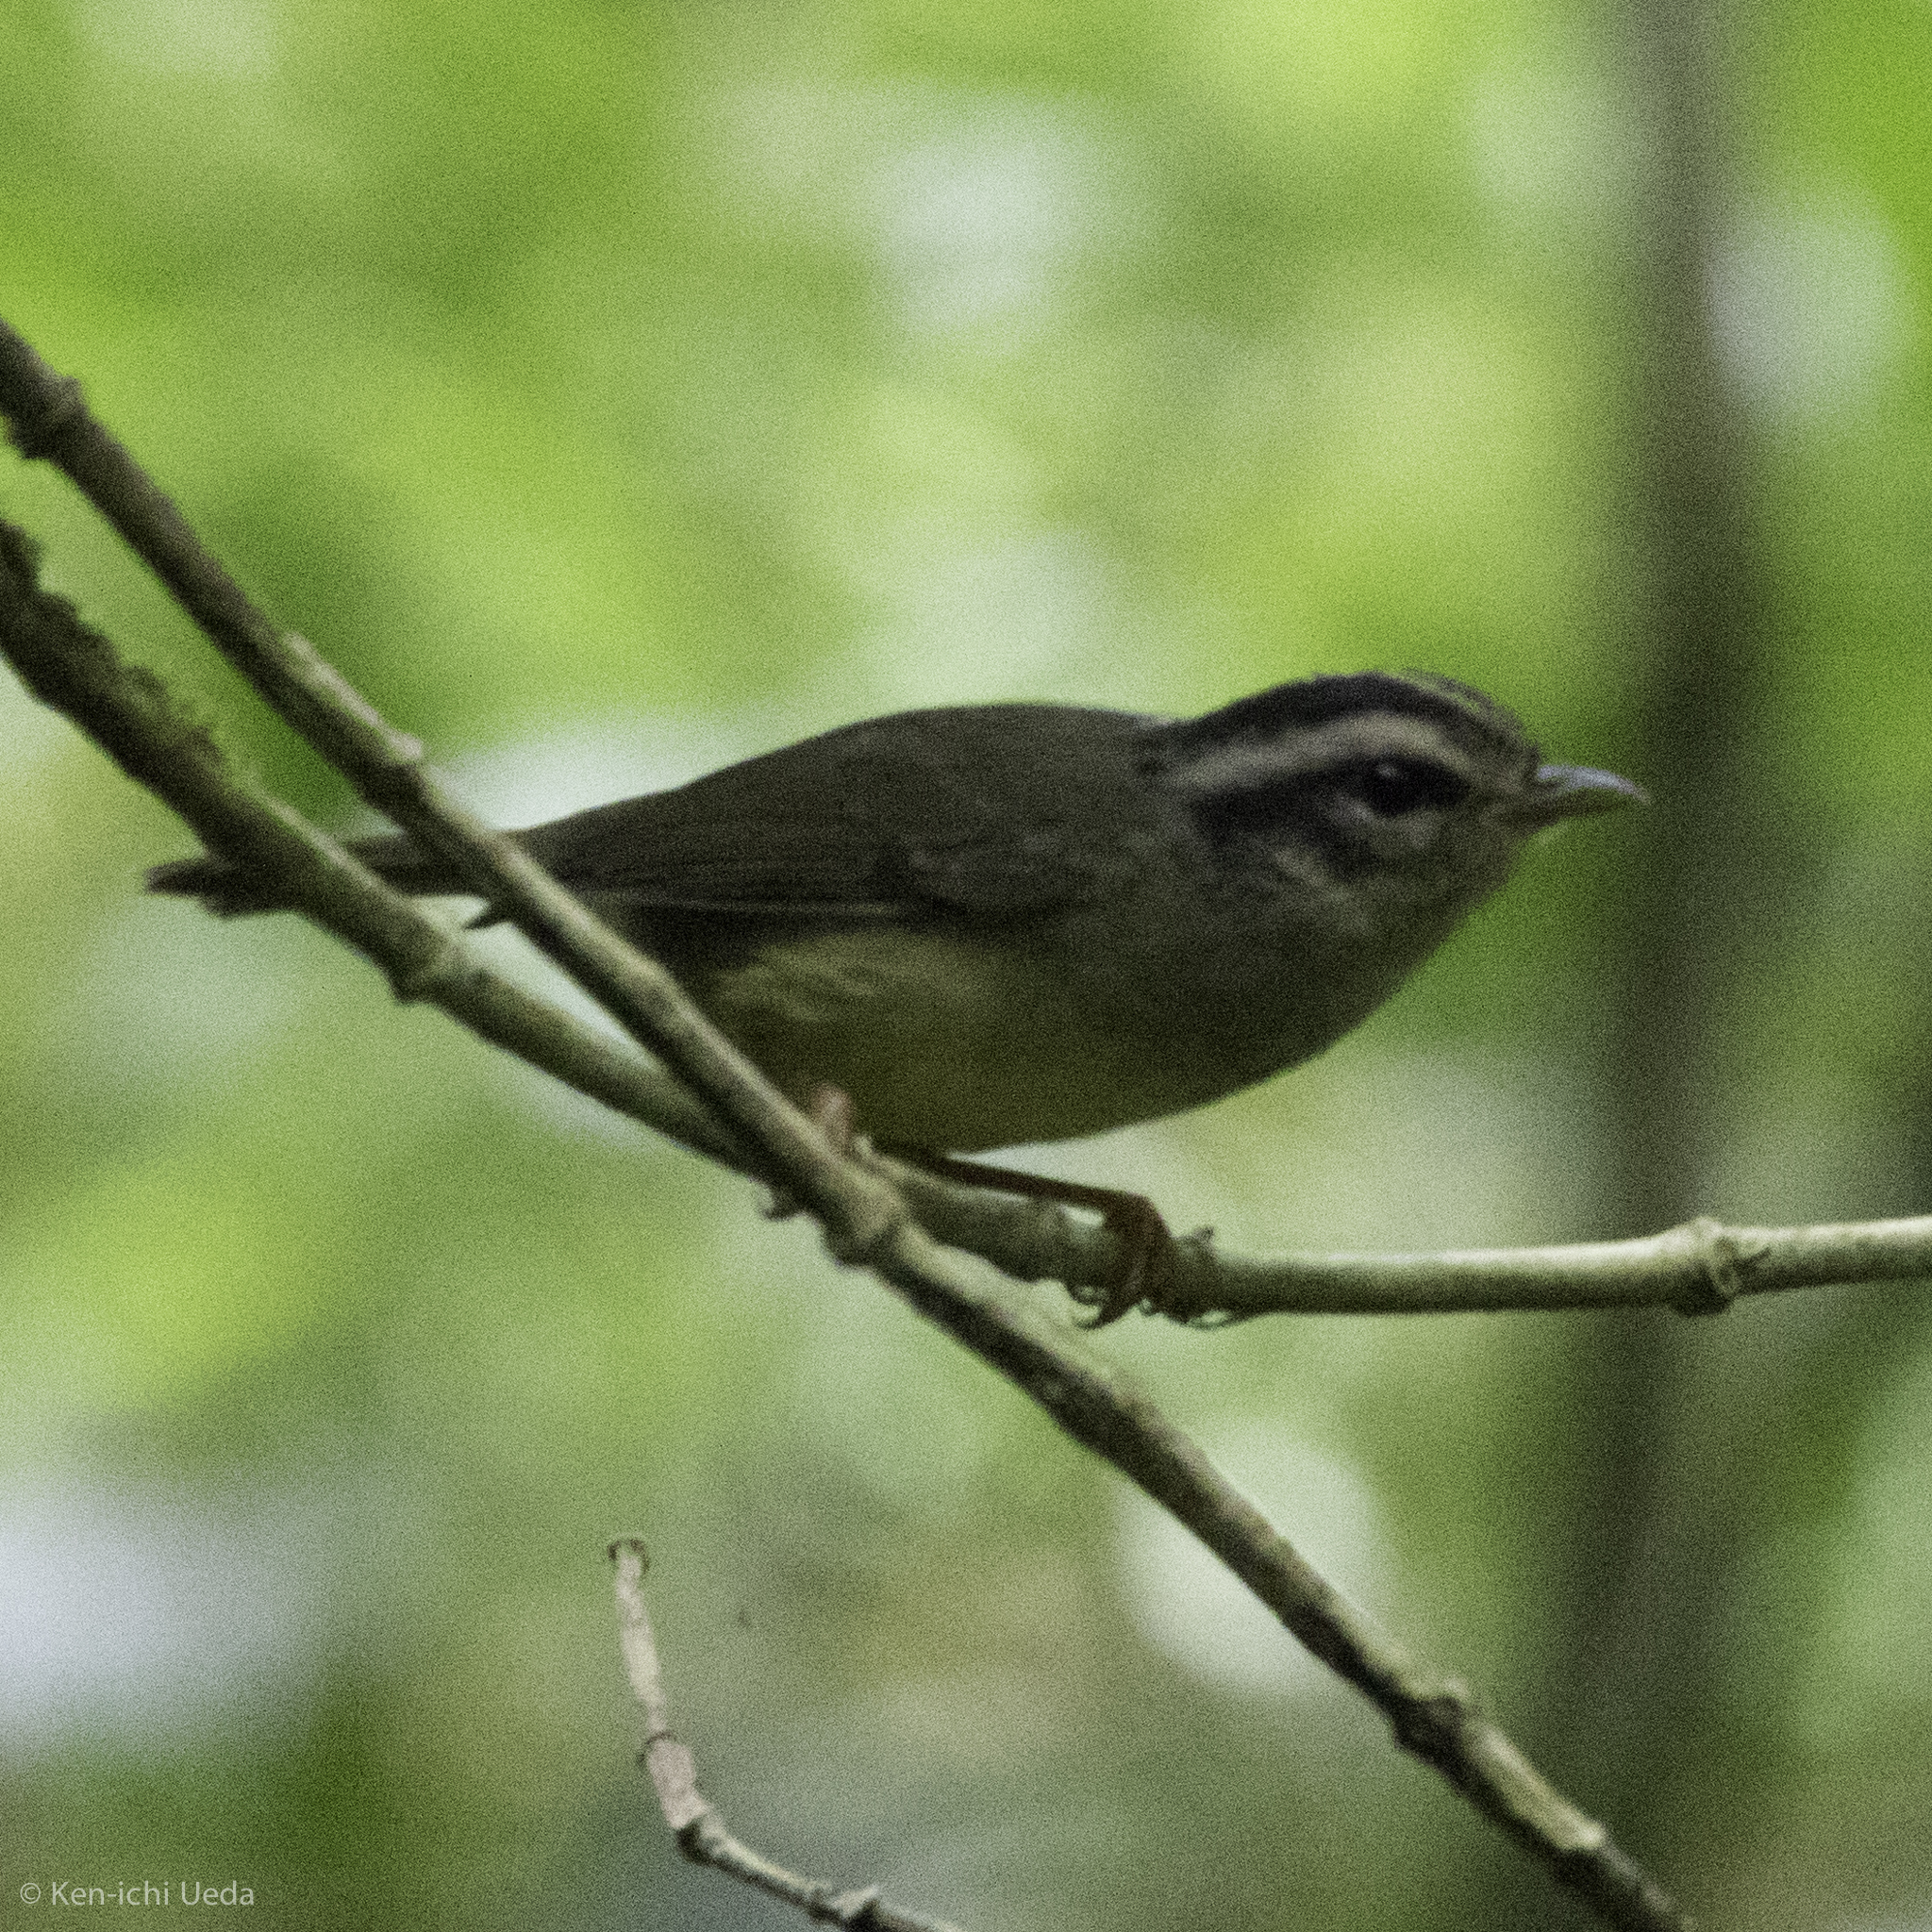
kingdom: Animalia
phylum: Chordata
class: Aves
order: Passeriformes
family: Parulidae
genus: Basileuterus
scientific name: Basileuterus melanotis
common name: Black-eared warbler
